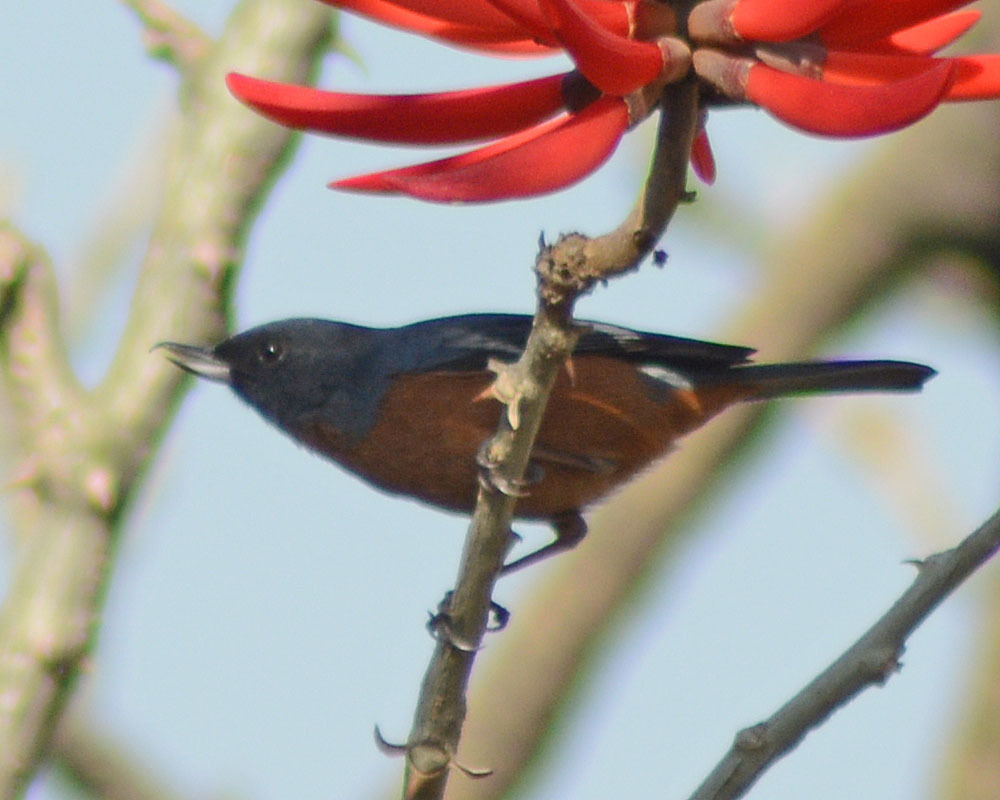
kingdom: Animalia
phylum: Chordata
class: Aves
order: Passeriformes
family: Thraupidae
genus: Diglossa
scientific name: Diglossa baritula
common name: Cinnamon-bellied flowerpiercer
